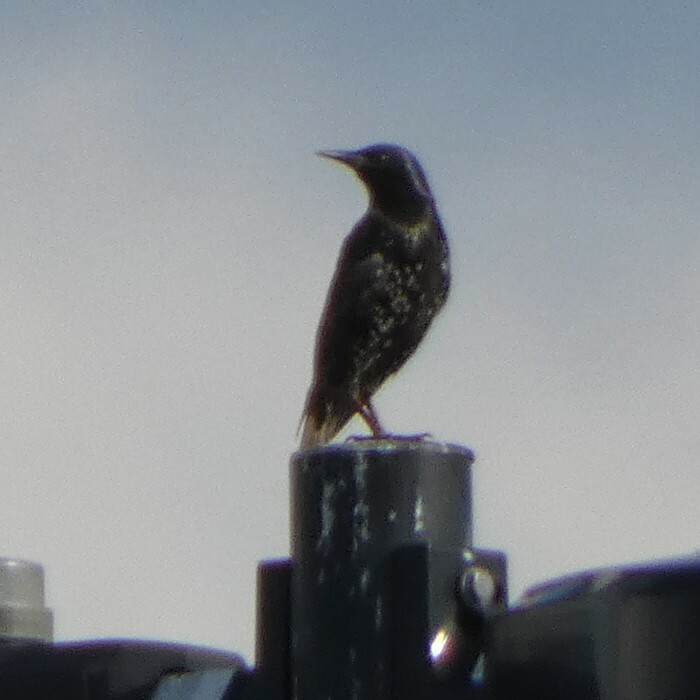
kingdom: Animalia
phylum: Chordata
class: Aves
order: Passeriformes
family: Sturnidae
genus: Sturnus
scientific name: Sturnus vulgaris
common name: Common starling
